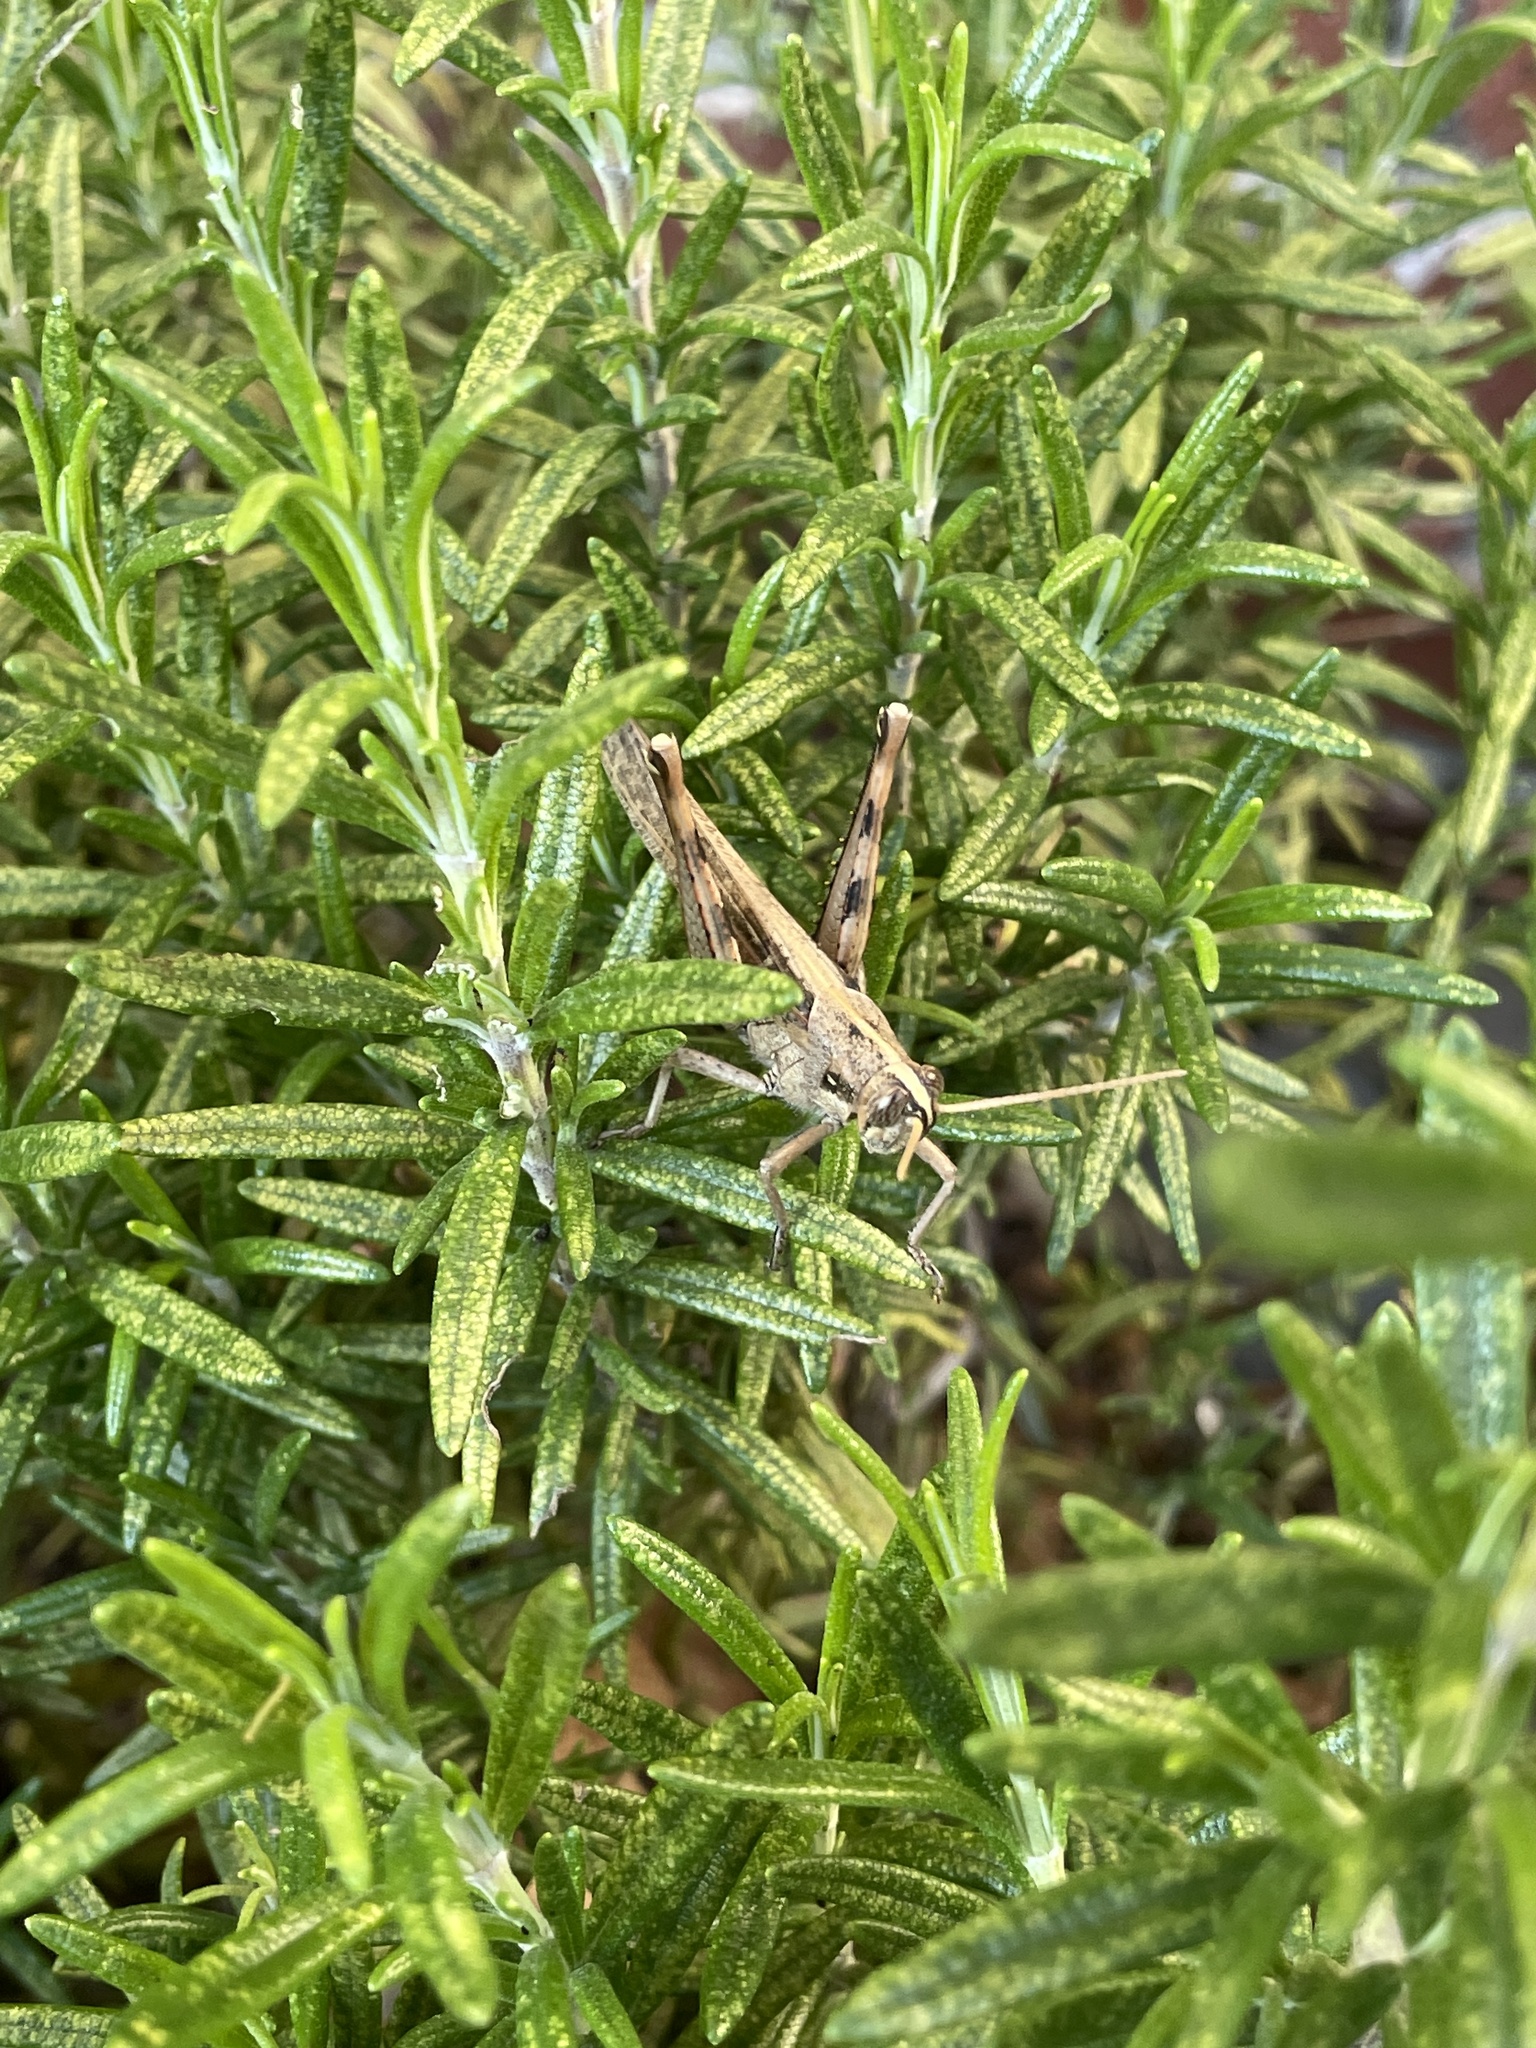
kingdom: Animalia
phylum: Arthropoda
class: Insecta
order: Orthoptera
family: Acrididae
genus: Schistocerca
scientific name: Schistocerca nitens
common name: Vagrant grasshopper
